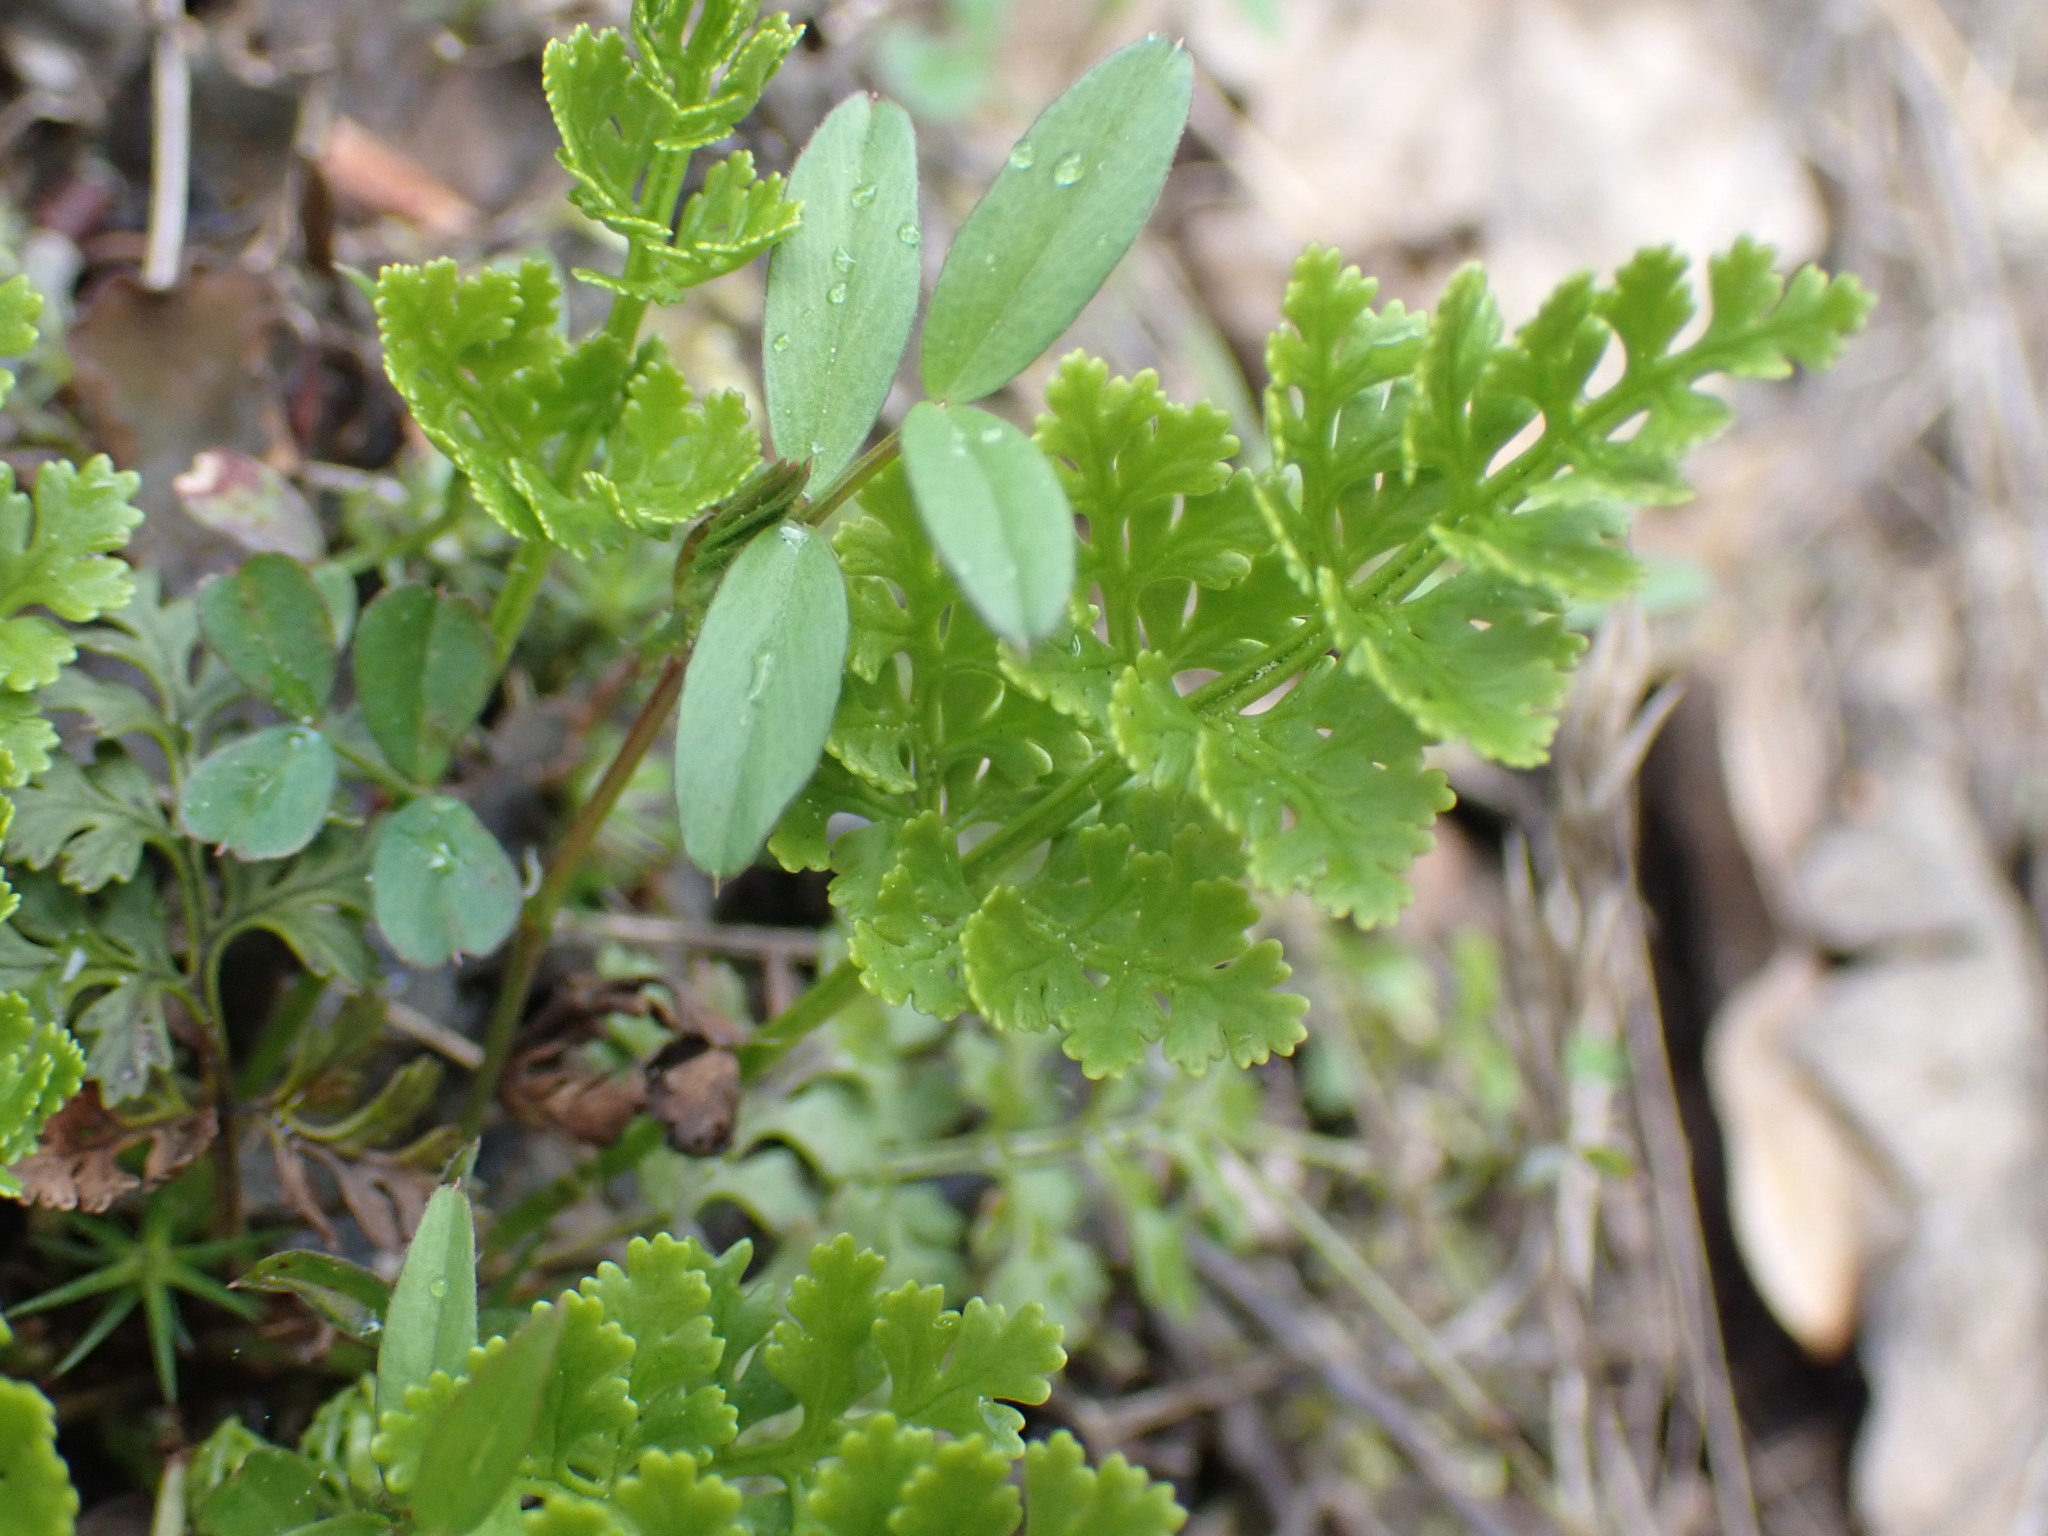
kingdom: Plantae
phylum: Tracheophyta
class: Polypodiopsida
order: Polypodiales
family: Pteridaceae
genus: Cryptogramma
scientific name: Cryptogramma acrostichoides
